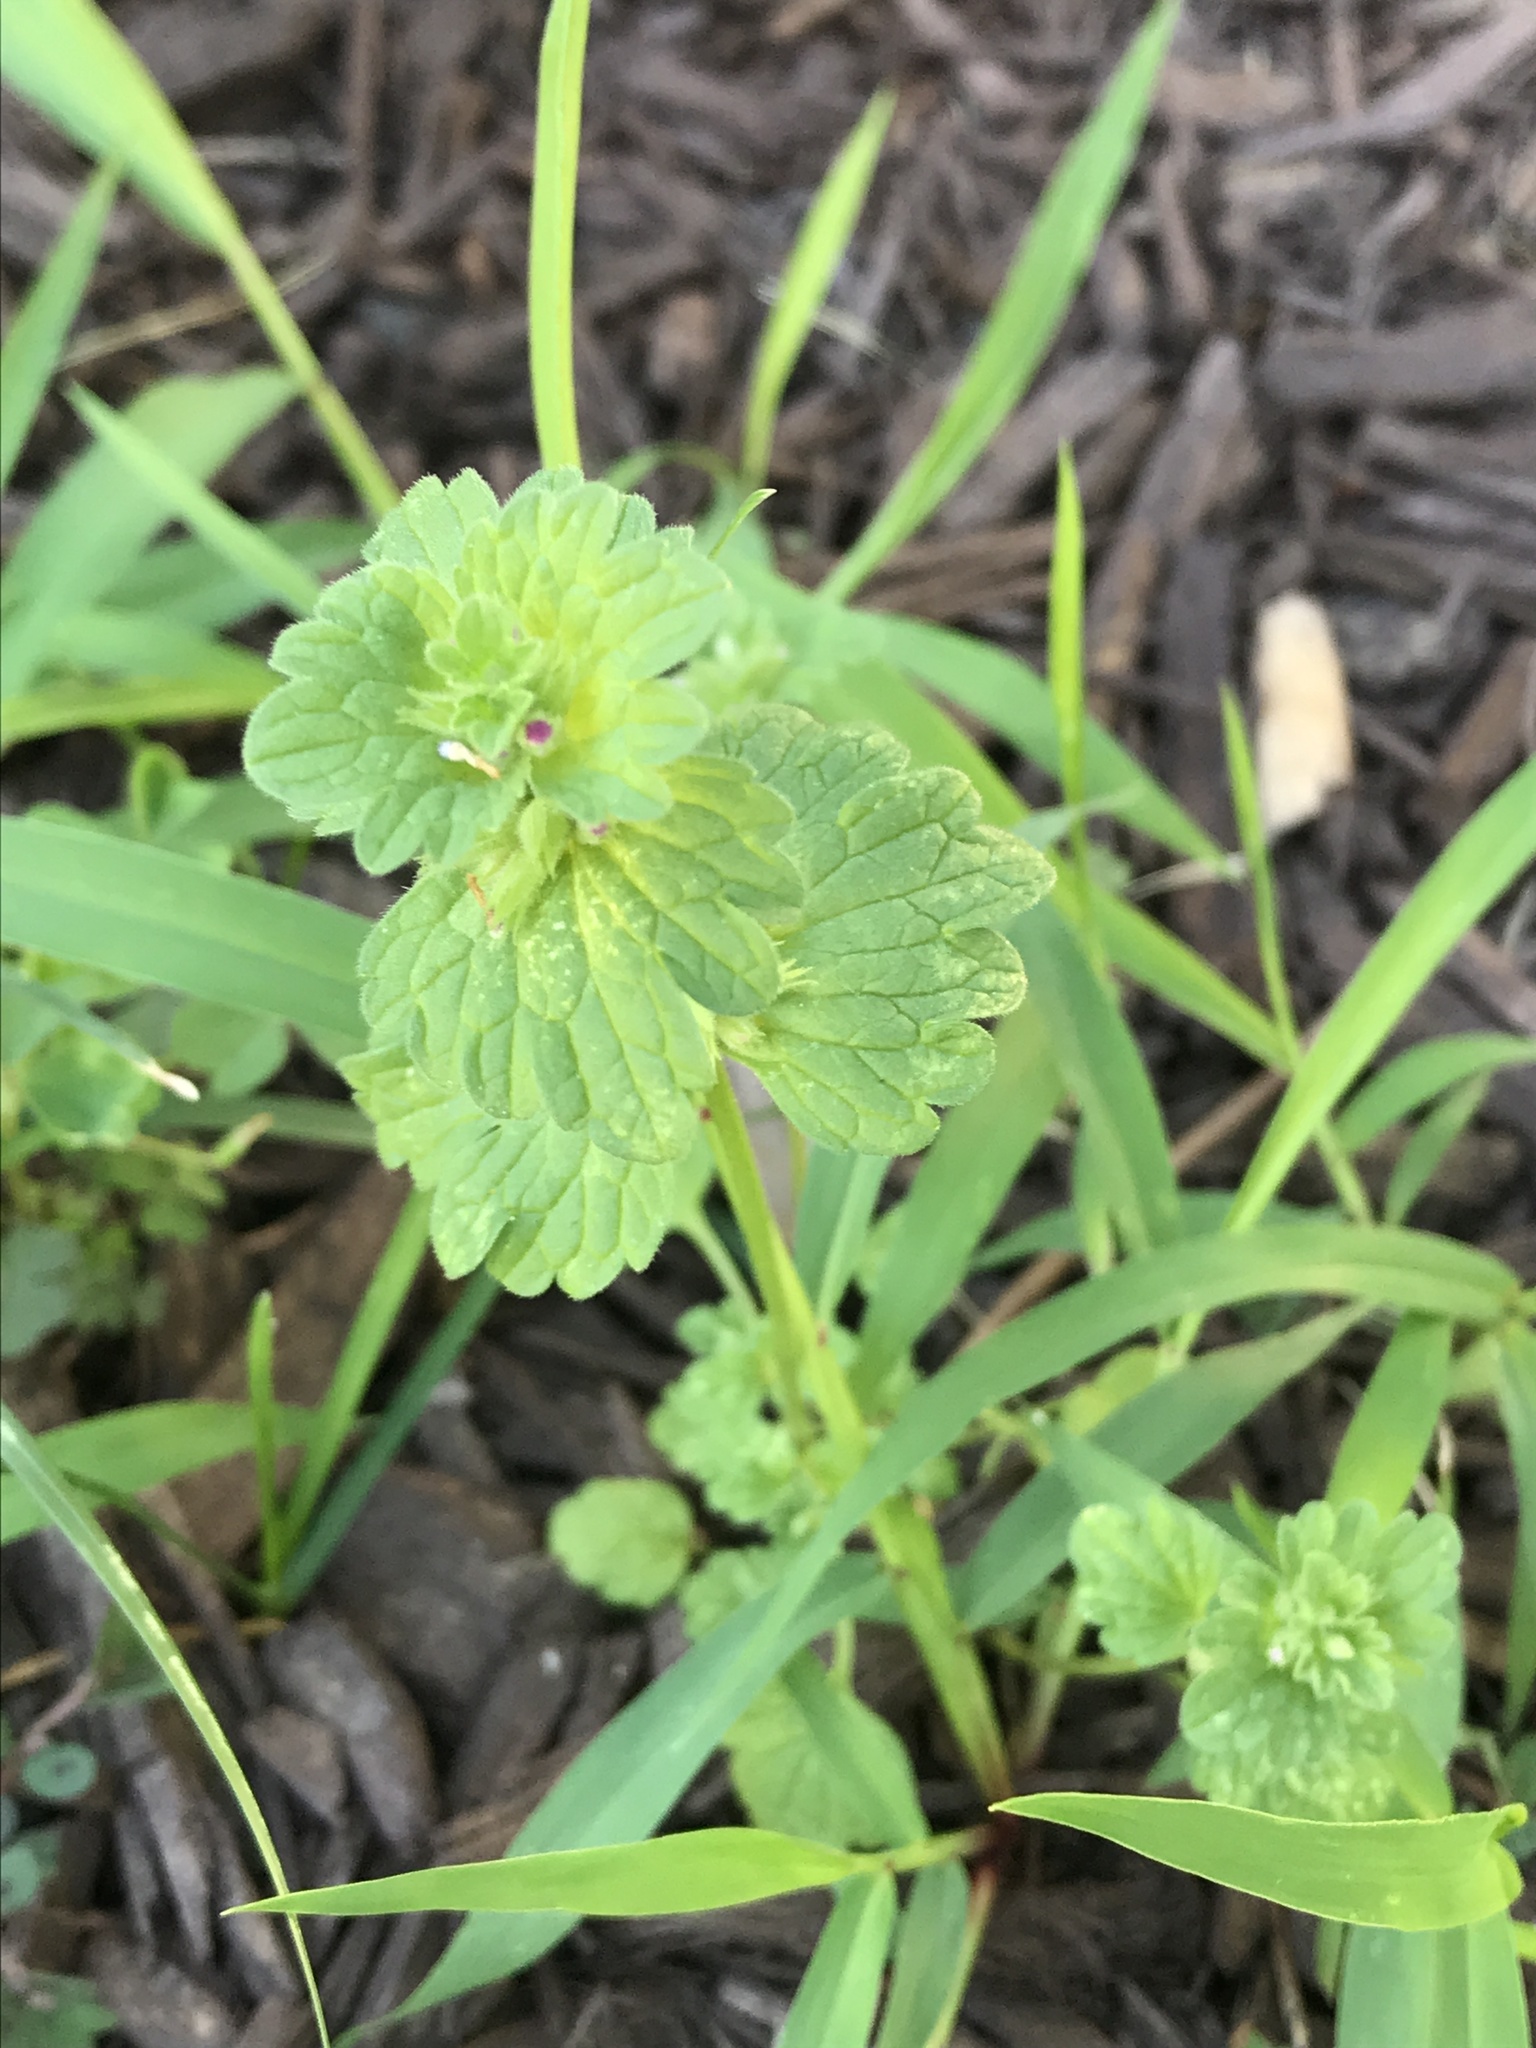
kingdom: Plantae
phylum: Tracheophyta
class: Magnoliopsida
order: Lamiales
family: Lamiaceae
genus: Lamium
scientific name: Lamium amplexicaule
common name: Henbit dead-nettle
